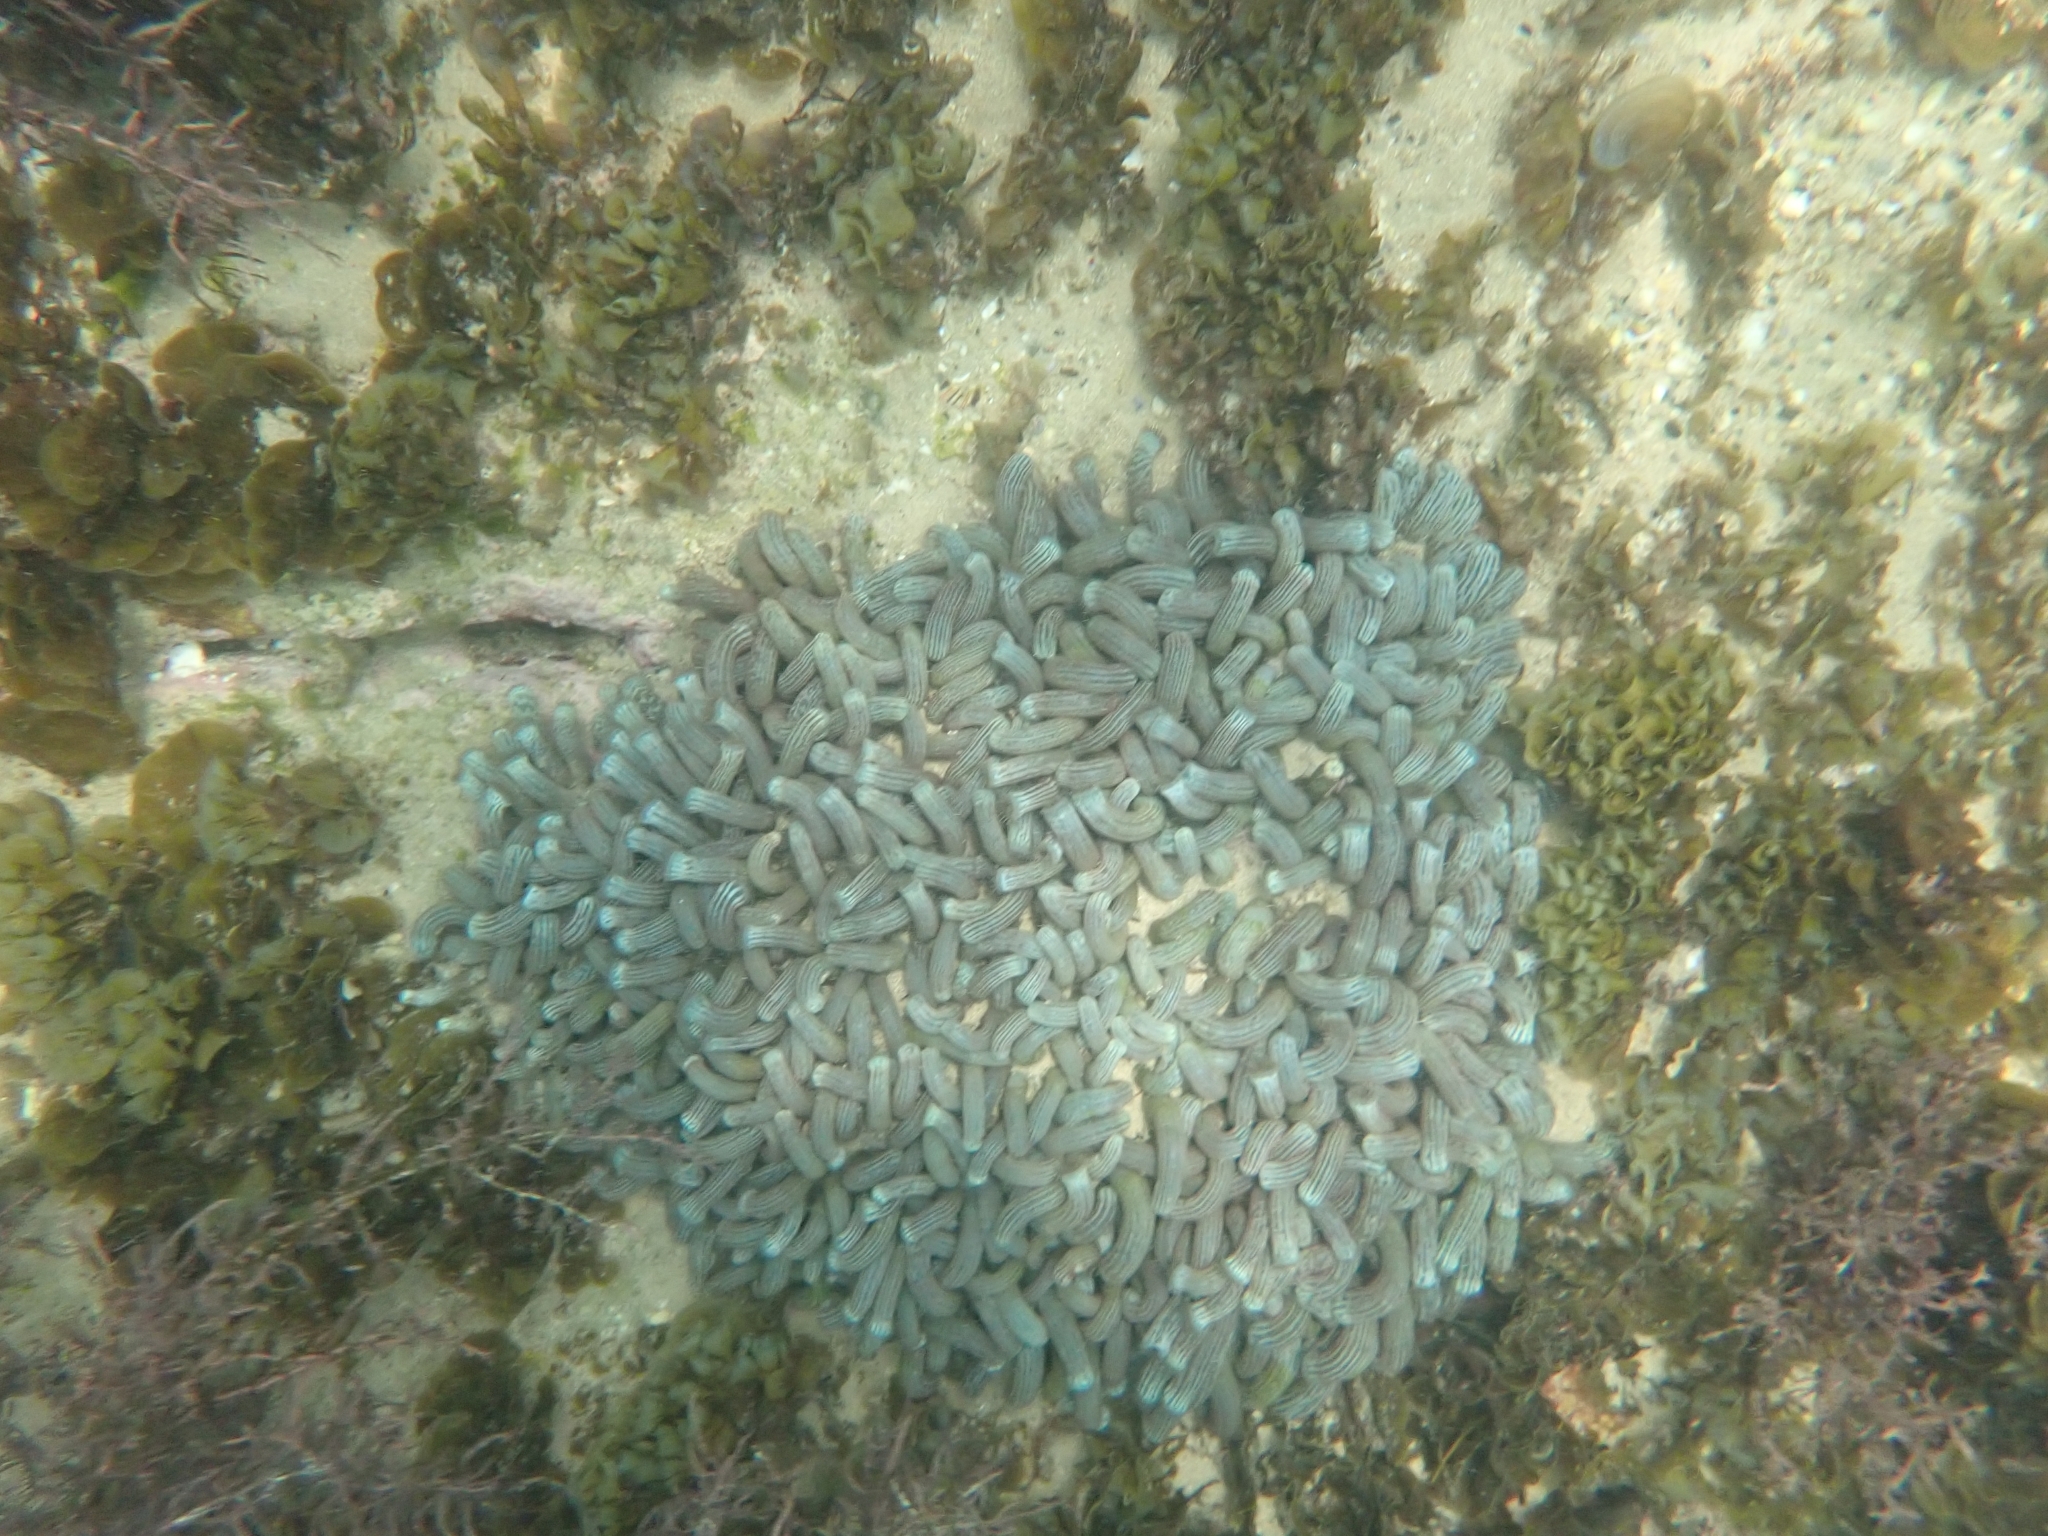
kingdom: Animalia
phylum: Cnidaria
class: Anthozoa
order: Zoantharia
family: Zoanthidae
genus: Isaurus
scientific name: Isaurus cliftoni
